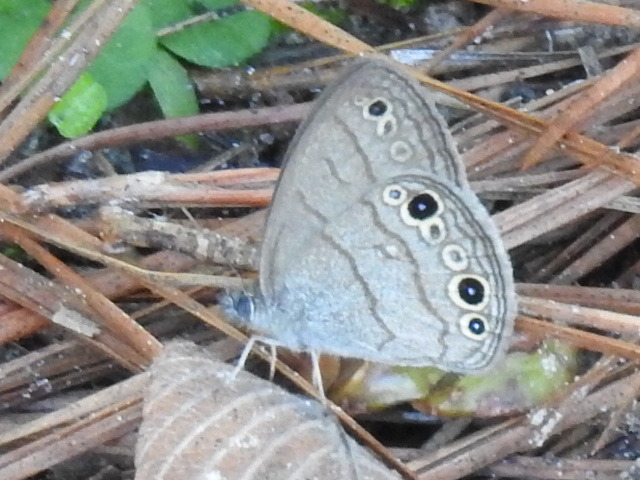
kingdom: Animalia
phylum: Arthropoda
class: Insecta
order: Lepidoptera
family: Nymphalidae
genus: Hermeuptychia
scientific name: Hermeuptychia hermes
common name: Hermes satyr
